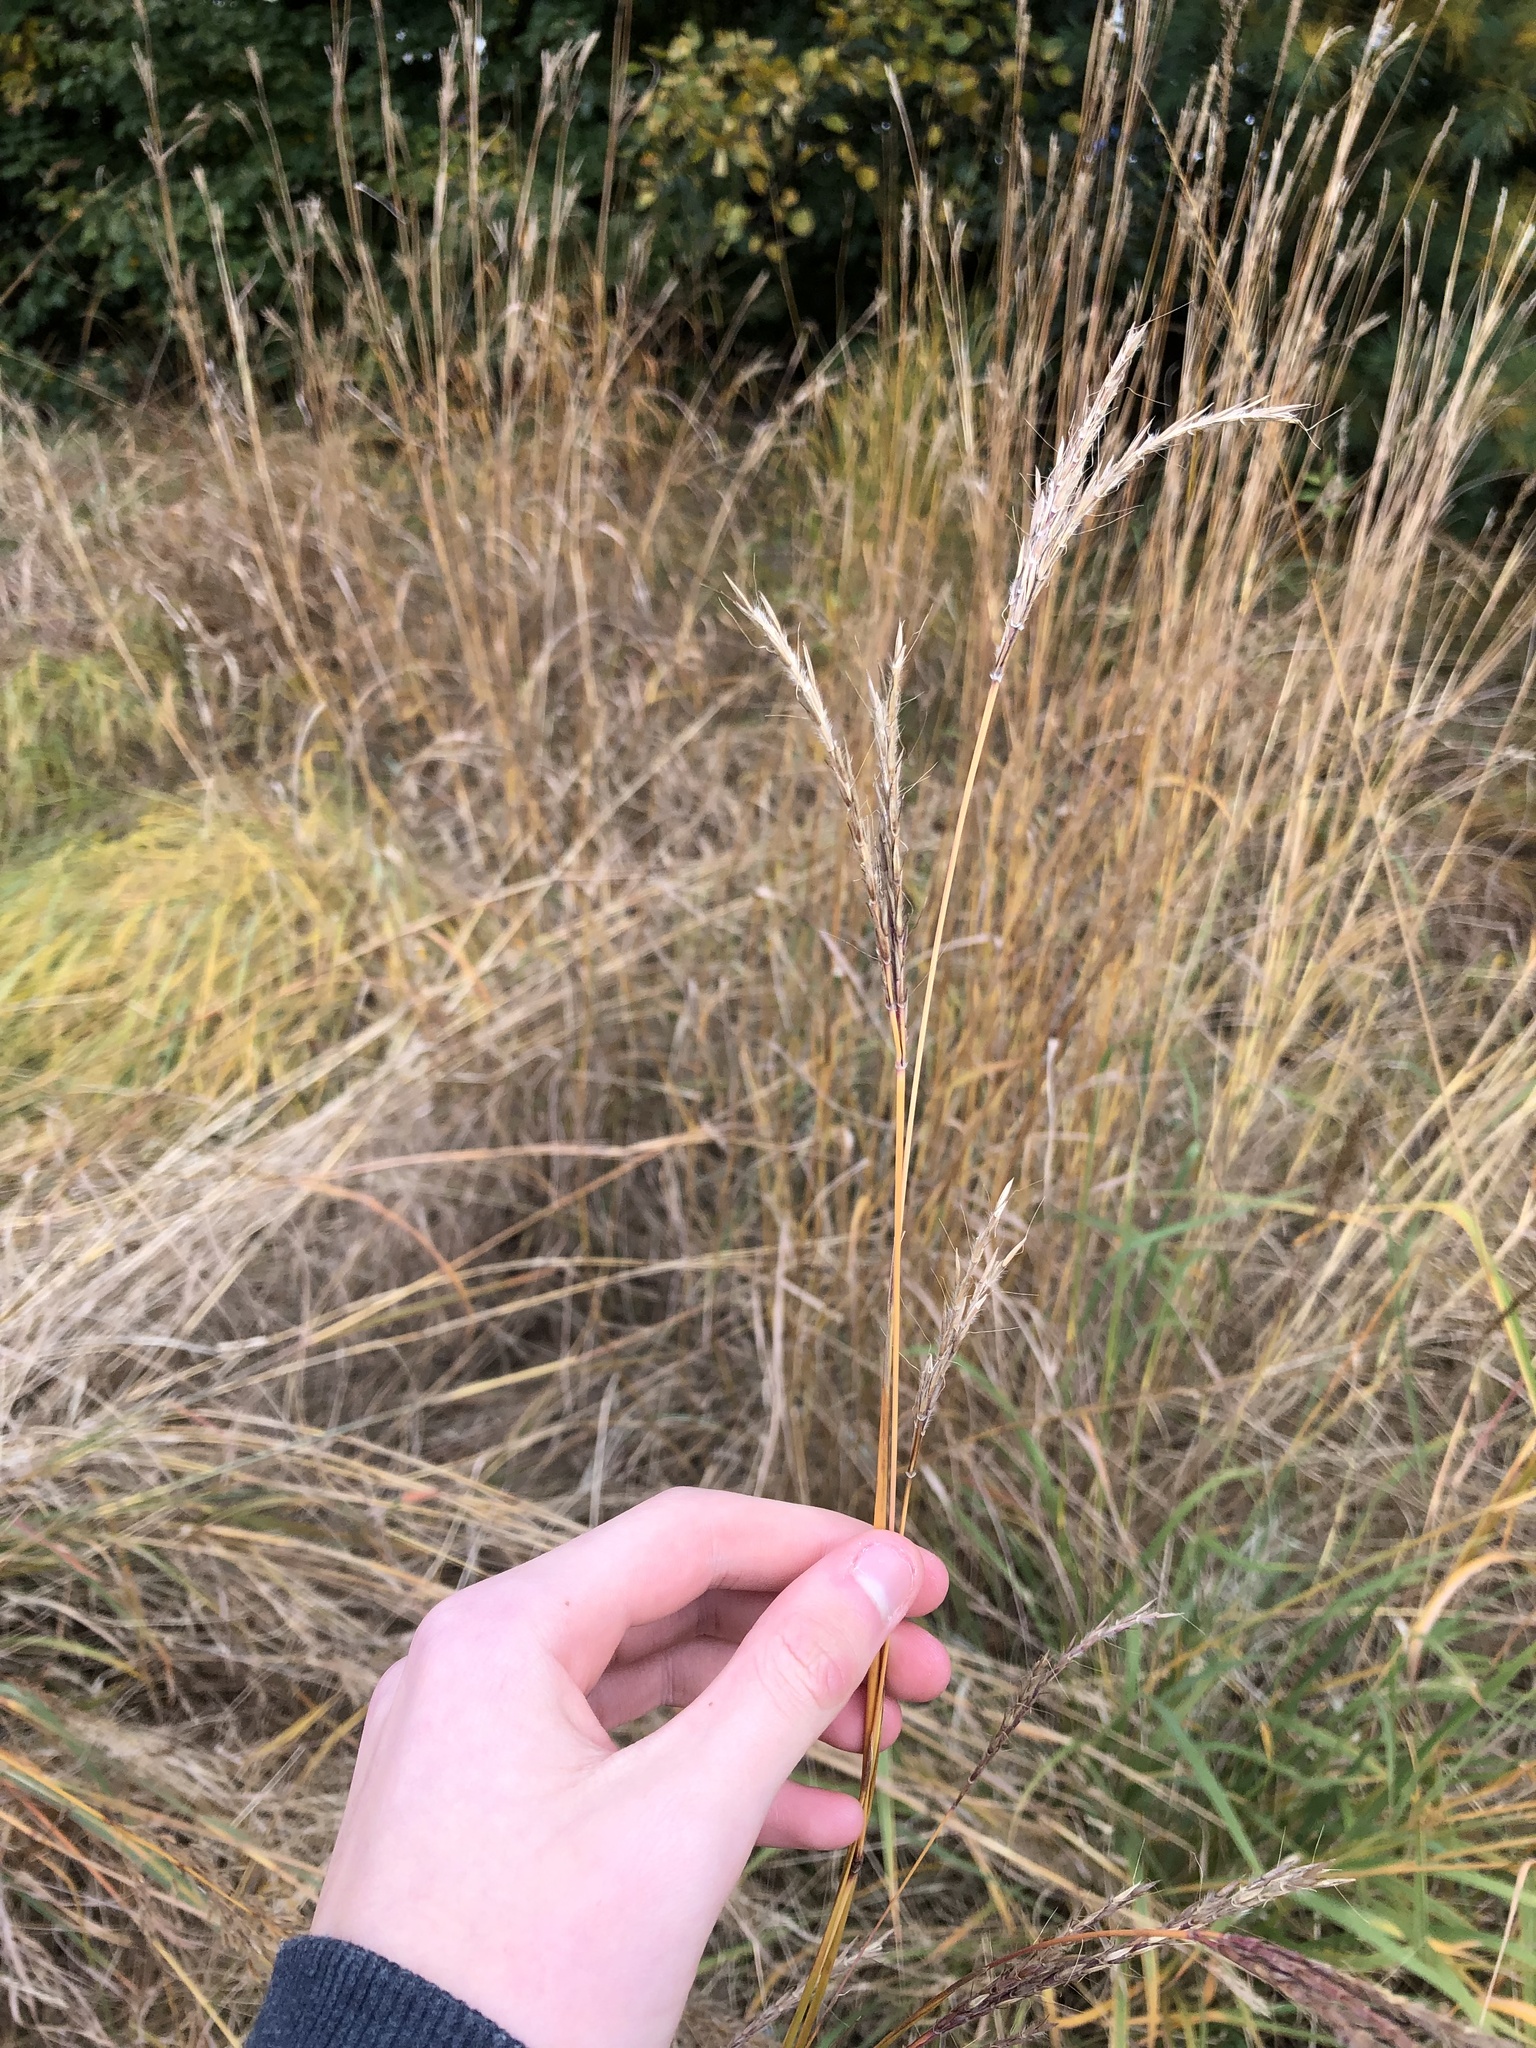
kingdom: Plantae
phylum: Tracheophyta
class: Liliopsida
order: Poales
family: Poaceae
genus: Andropogon
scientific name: Andropogon gerardi
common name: Big bluestem
